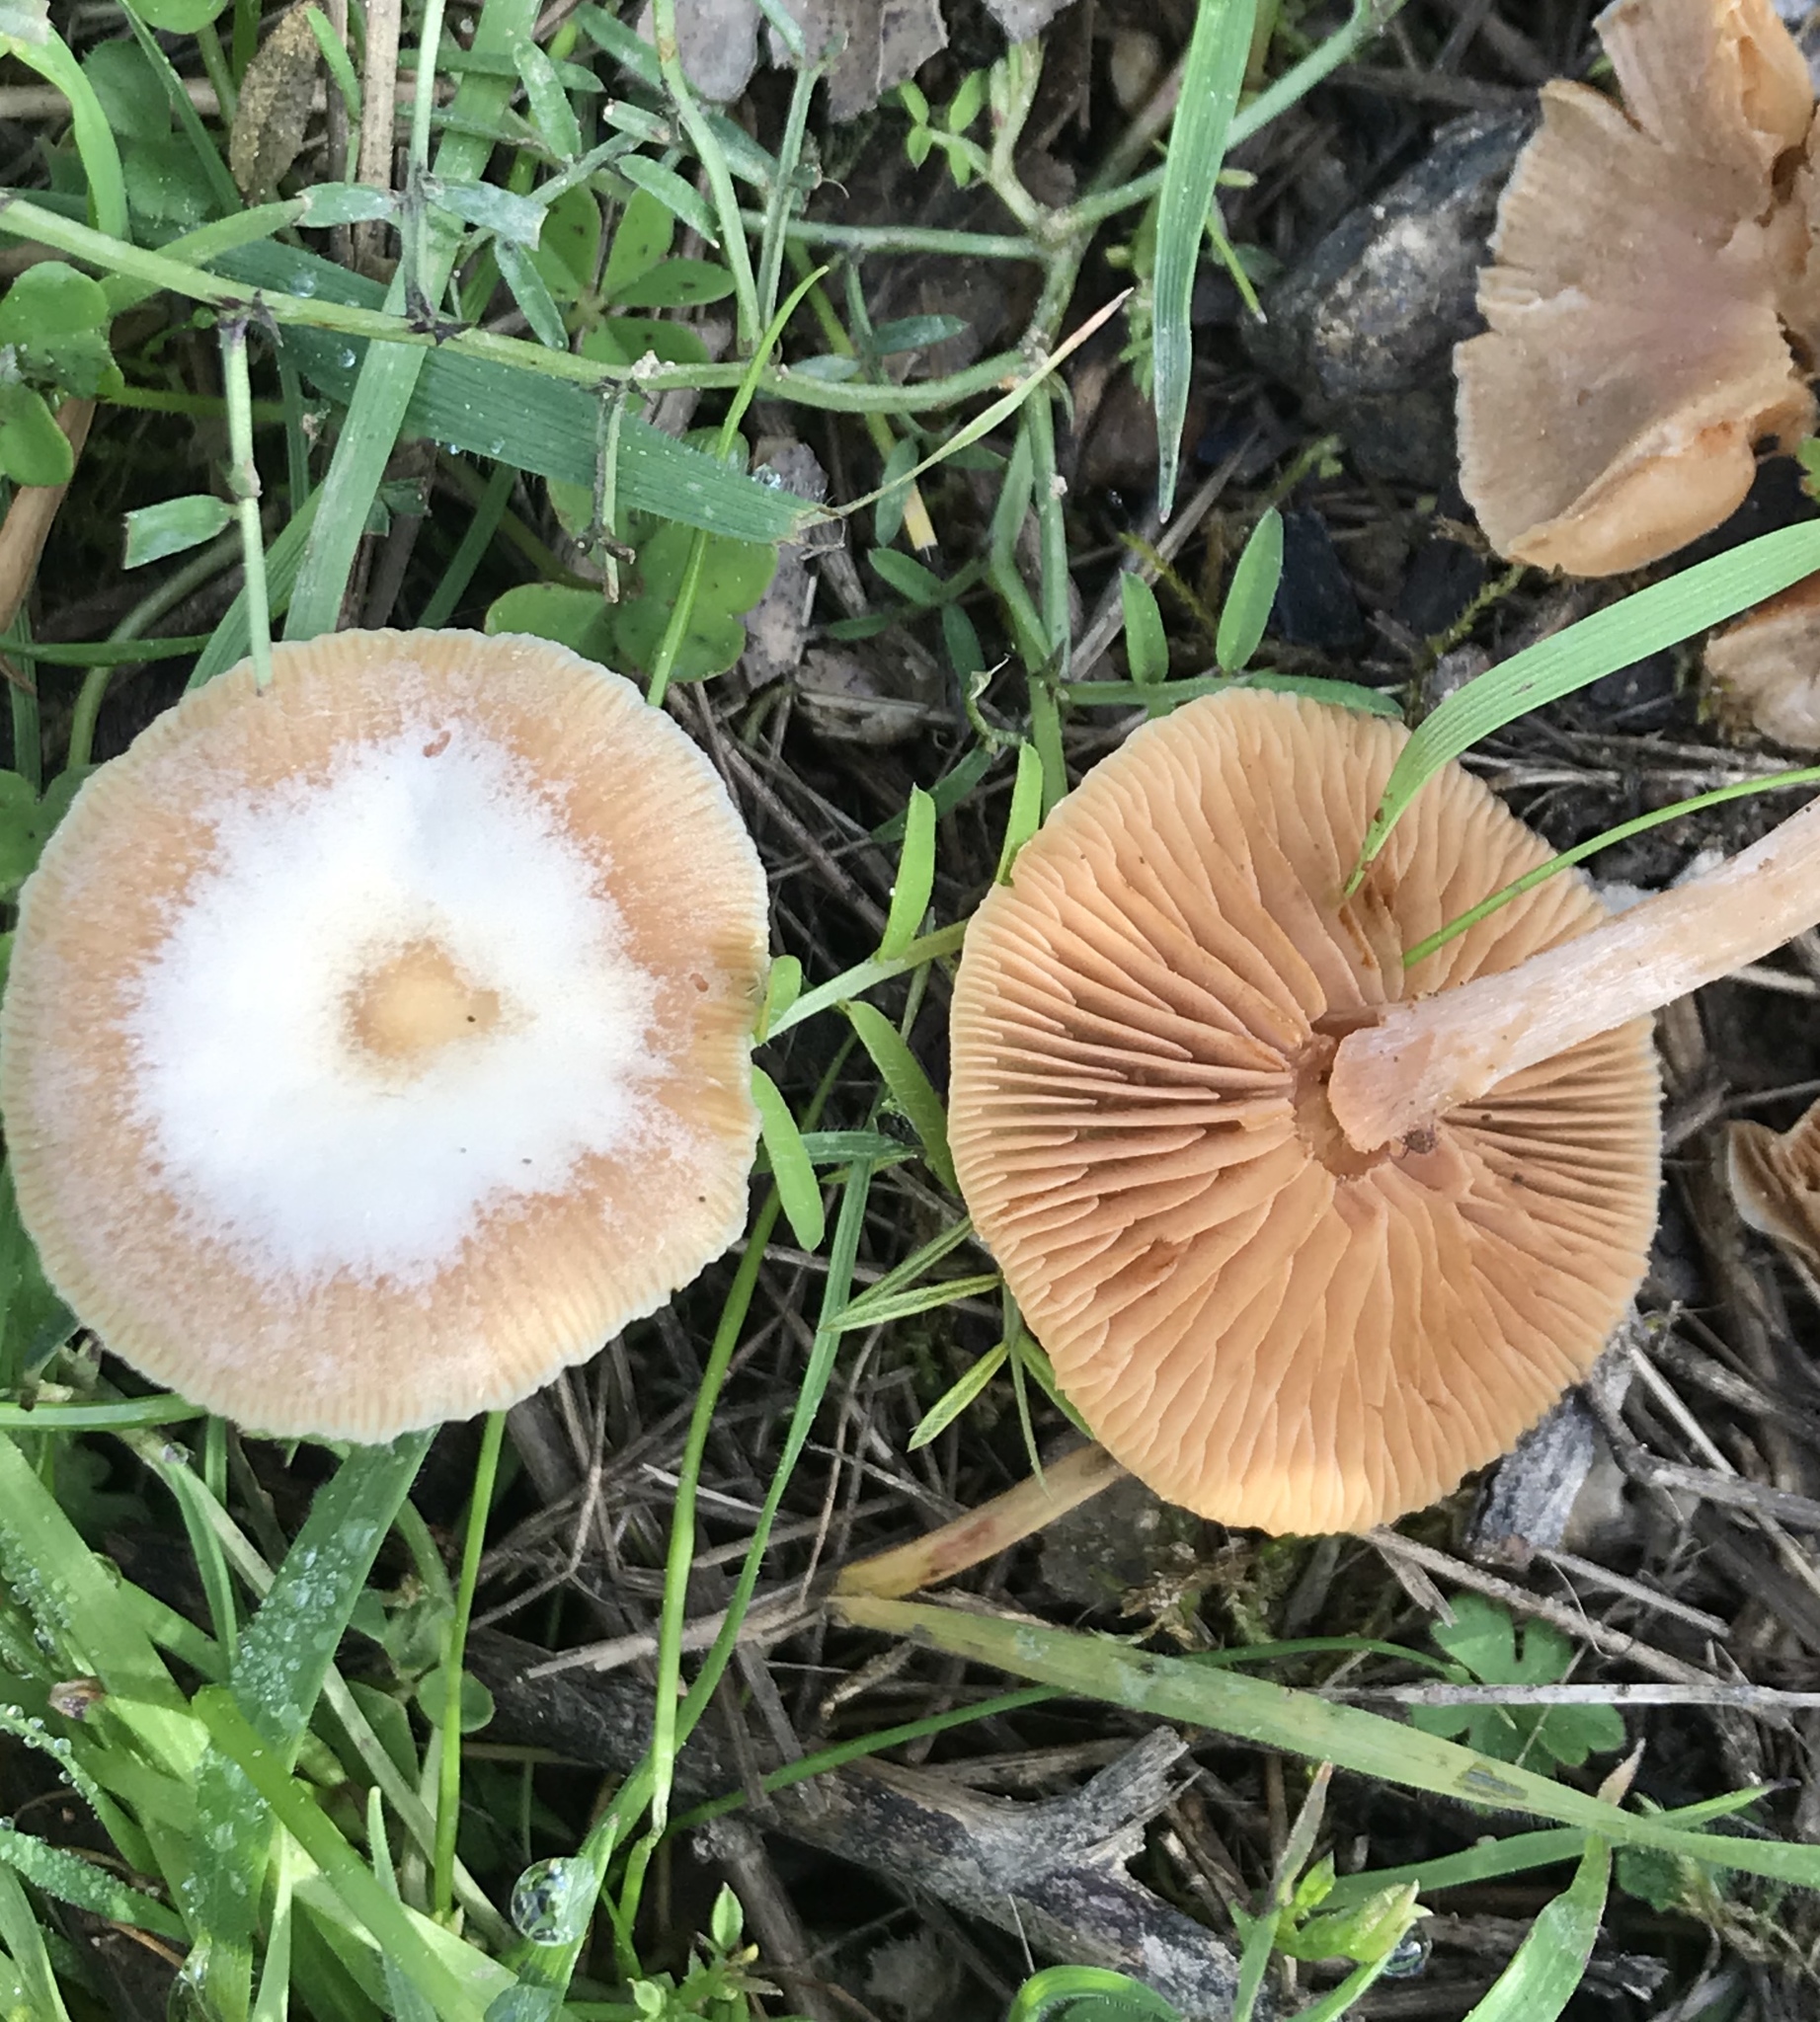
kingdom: Fungi
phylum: Basidiomycota
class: Agaricomycetes
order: Agaricales
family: Tubariaceae
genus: Tubaria
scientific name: Tubaria furfuracea
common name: Scurfy twiglet
